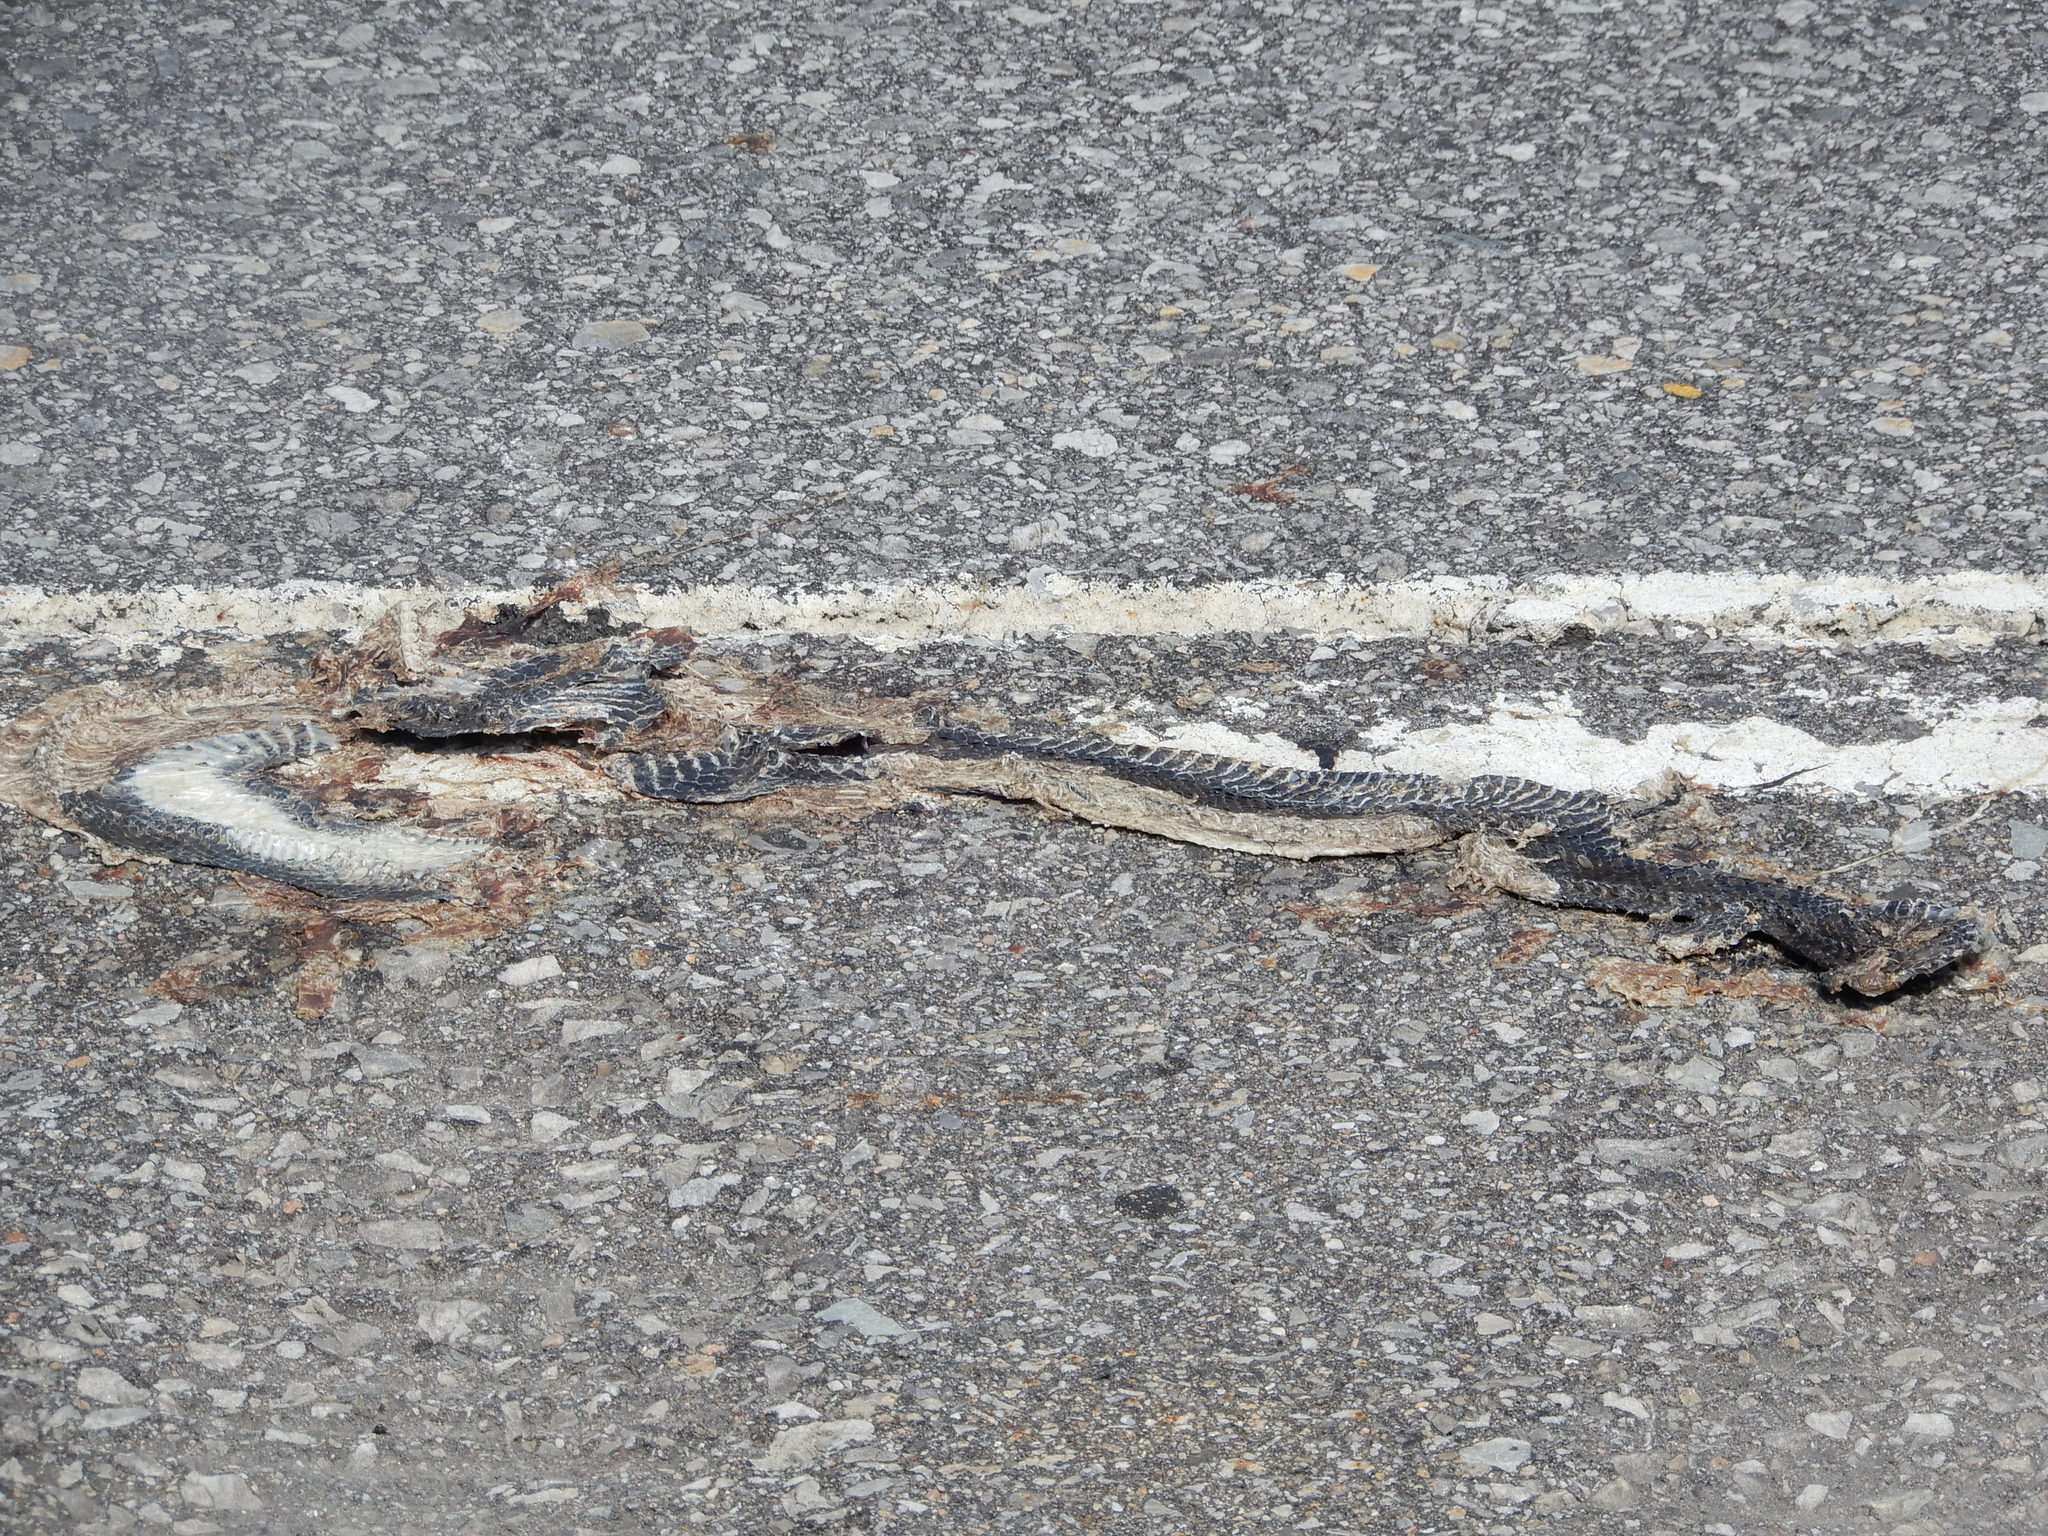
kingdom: Animalia
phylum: Chordata
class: Squamata
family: Colubridae
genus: Nerodia
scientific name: Nerodia sipedon
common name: Northern water snake
